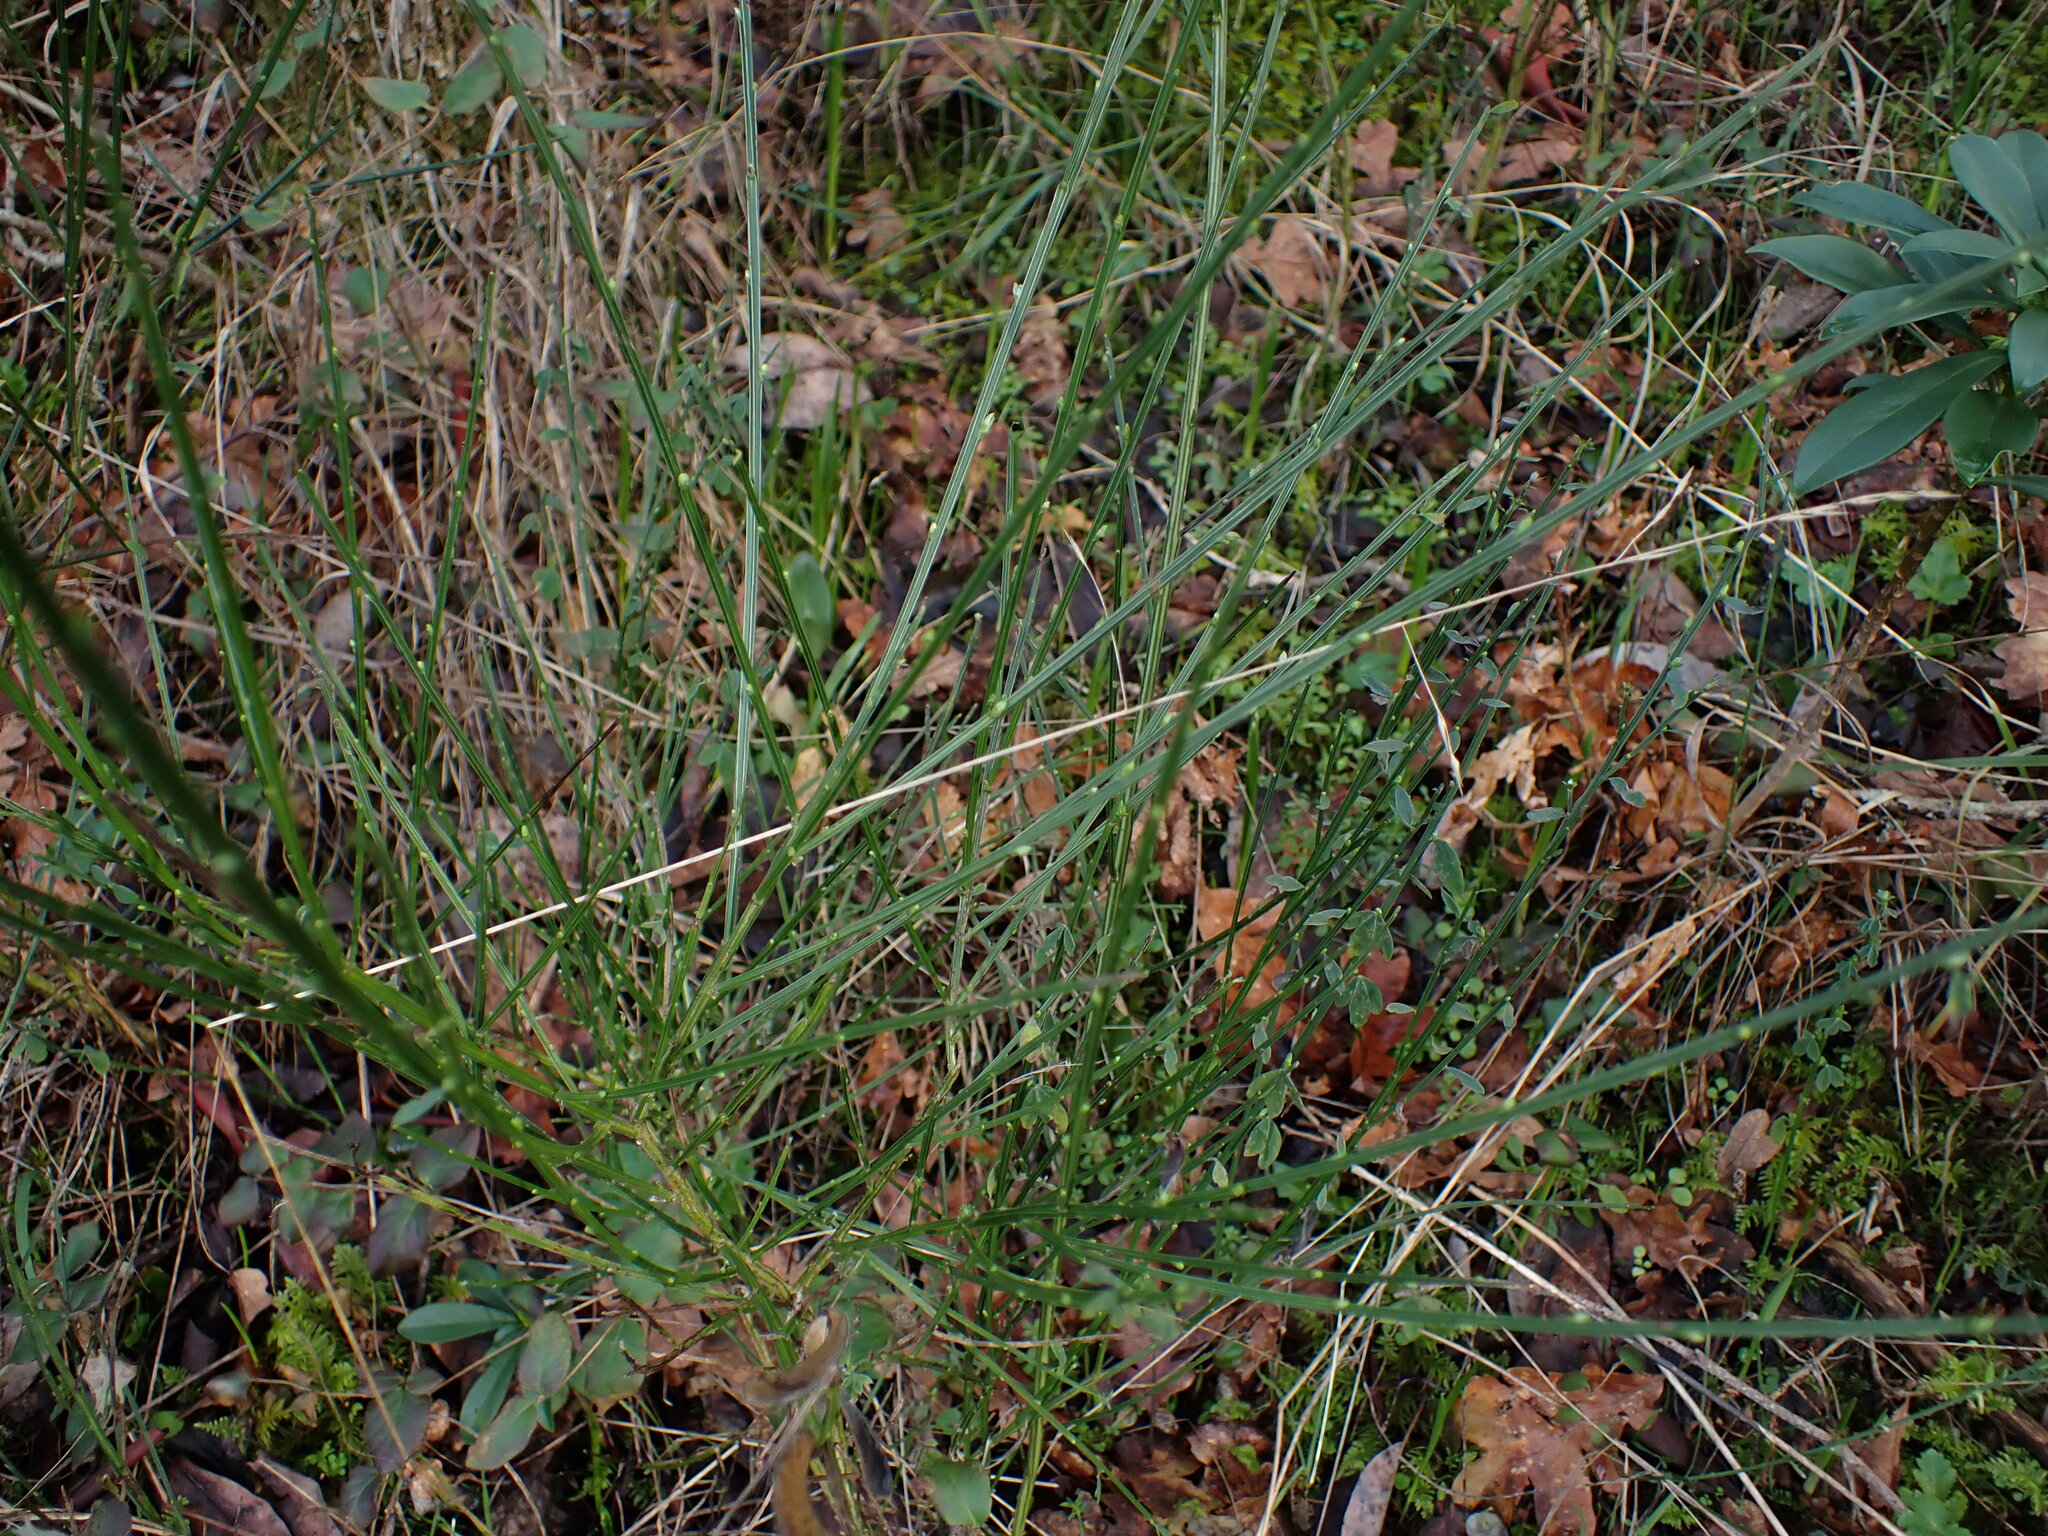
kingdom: Plantae
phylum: Tracheophyta
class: Magnoliopsida
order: Fabales
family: Fabaceae
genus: Cytisus
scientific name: Cytisus scoparius
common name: Scotch broom
